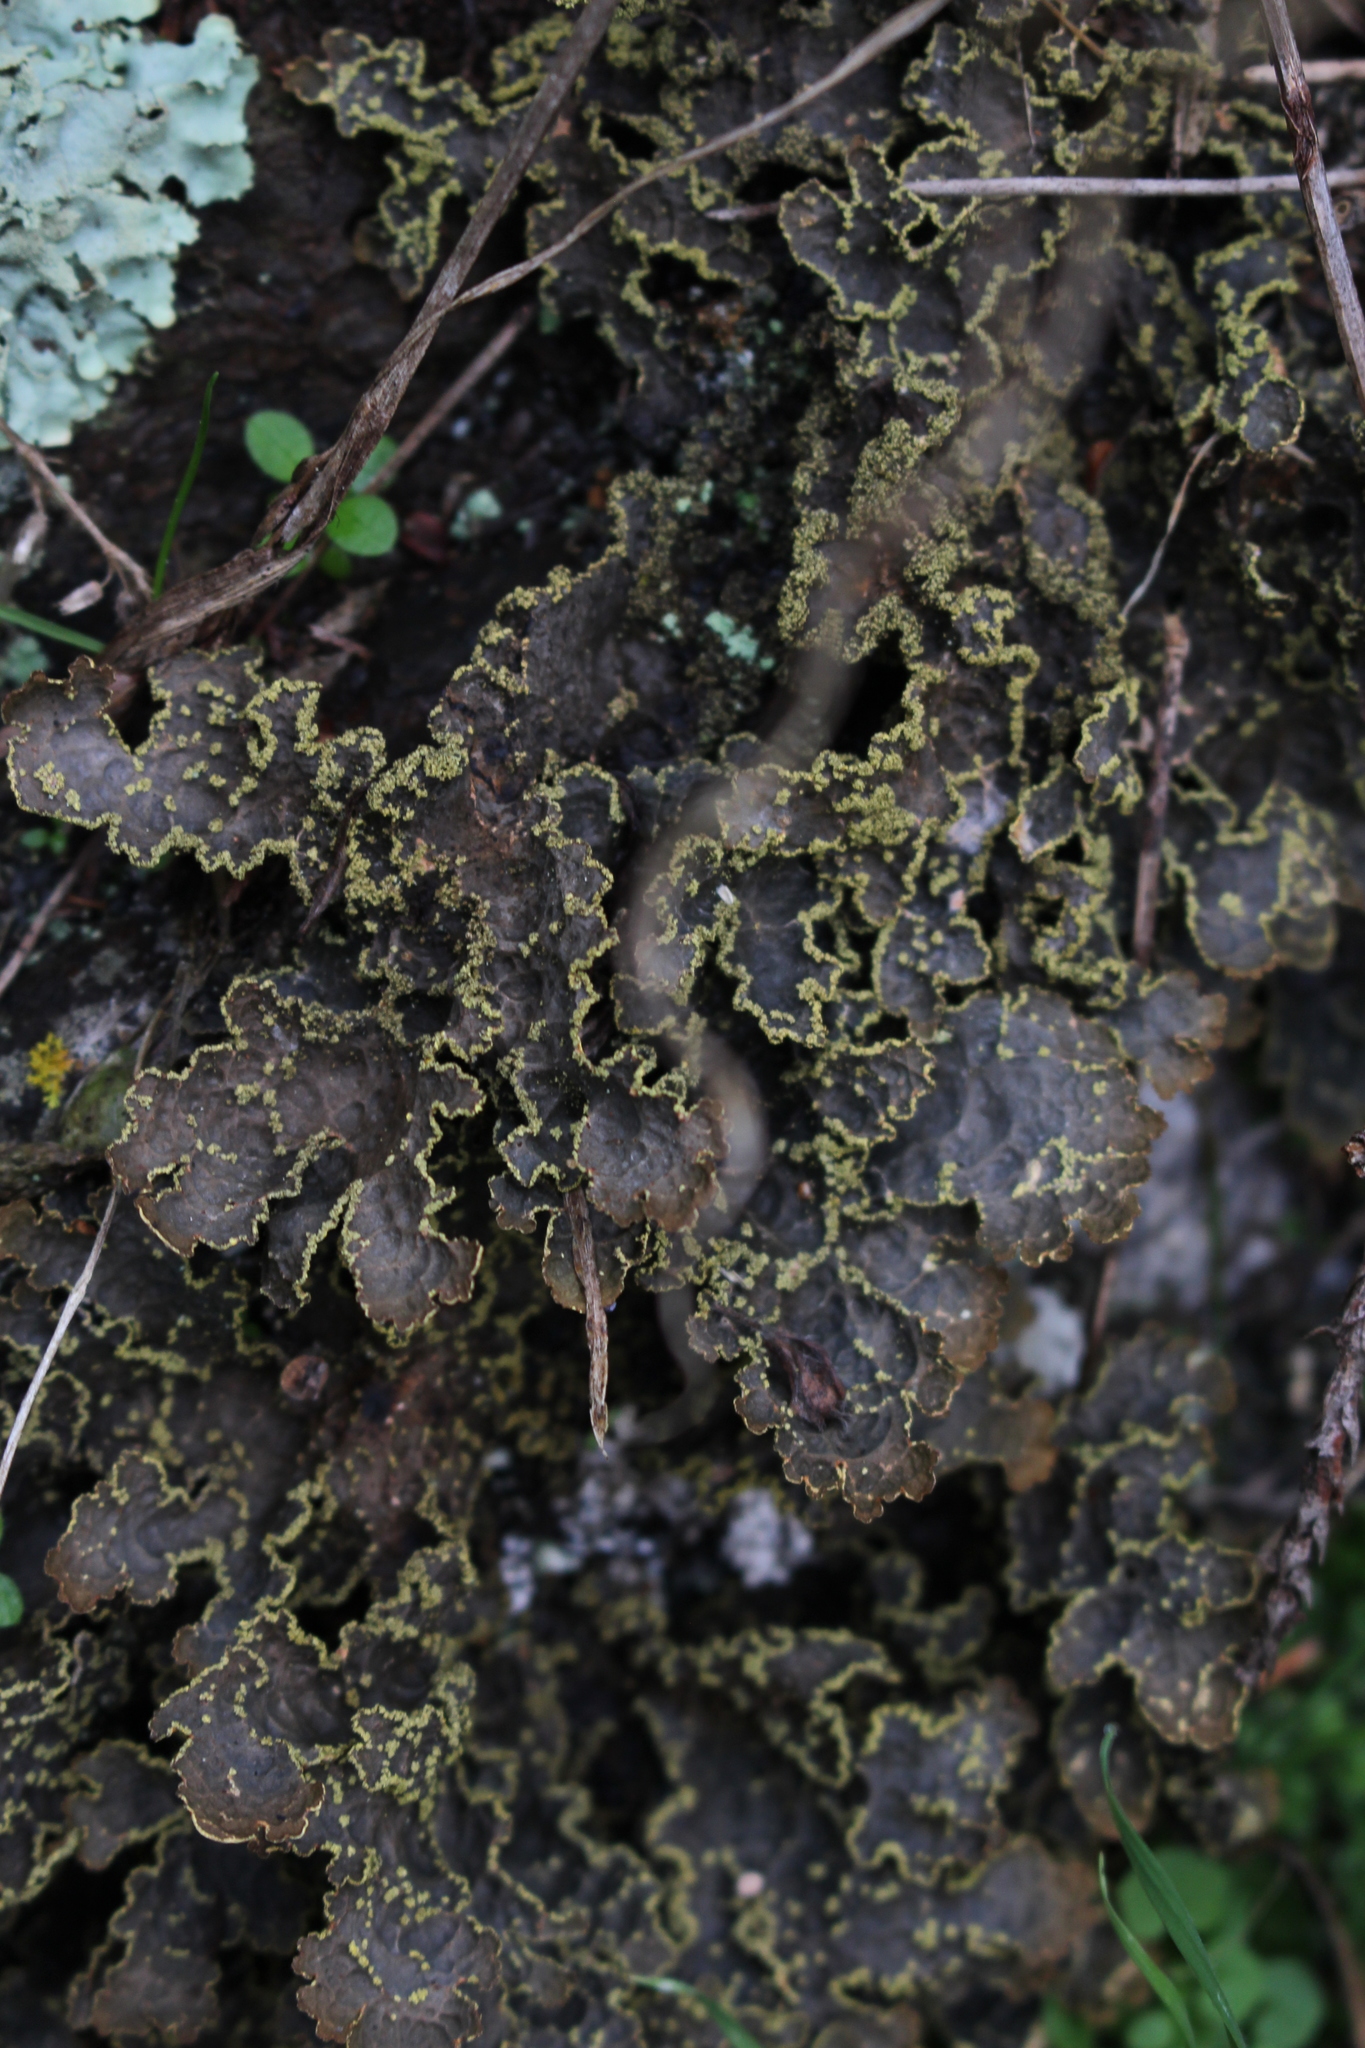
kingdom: Fungi
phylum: Ascomycota
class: Lecanoromycetes
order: Peltigerales
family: Lobariaceae
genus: Pseudocyphellaria
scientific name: Pseudocyphellaria crocata
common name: Golden specklebelly
